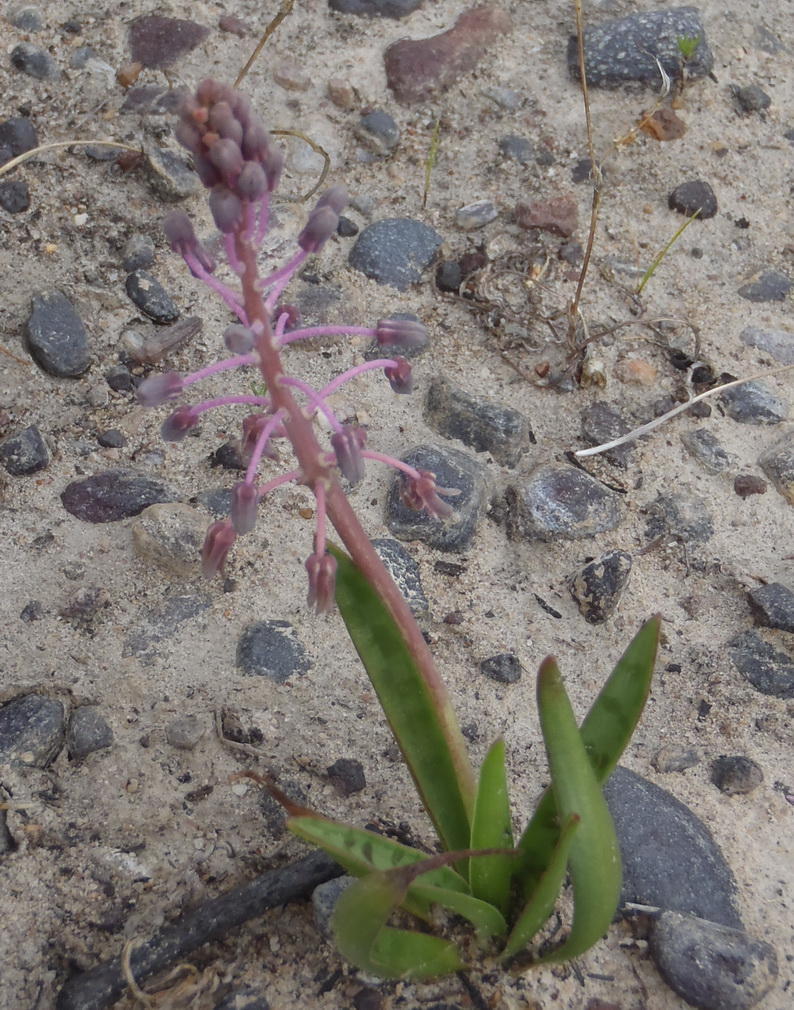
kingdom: Plantae
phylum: Tracheophyta
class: Liliopsida
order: Asparagales
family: Asparagaceae
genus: Ledebouria
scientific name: Ledebouria revoluta
